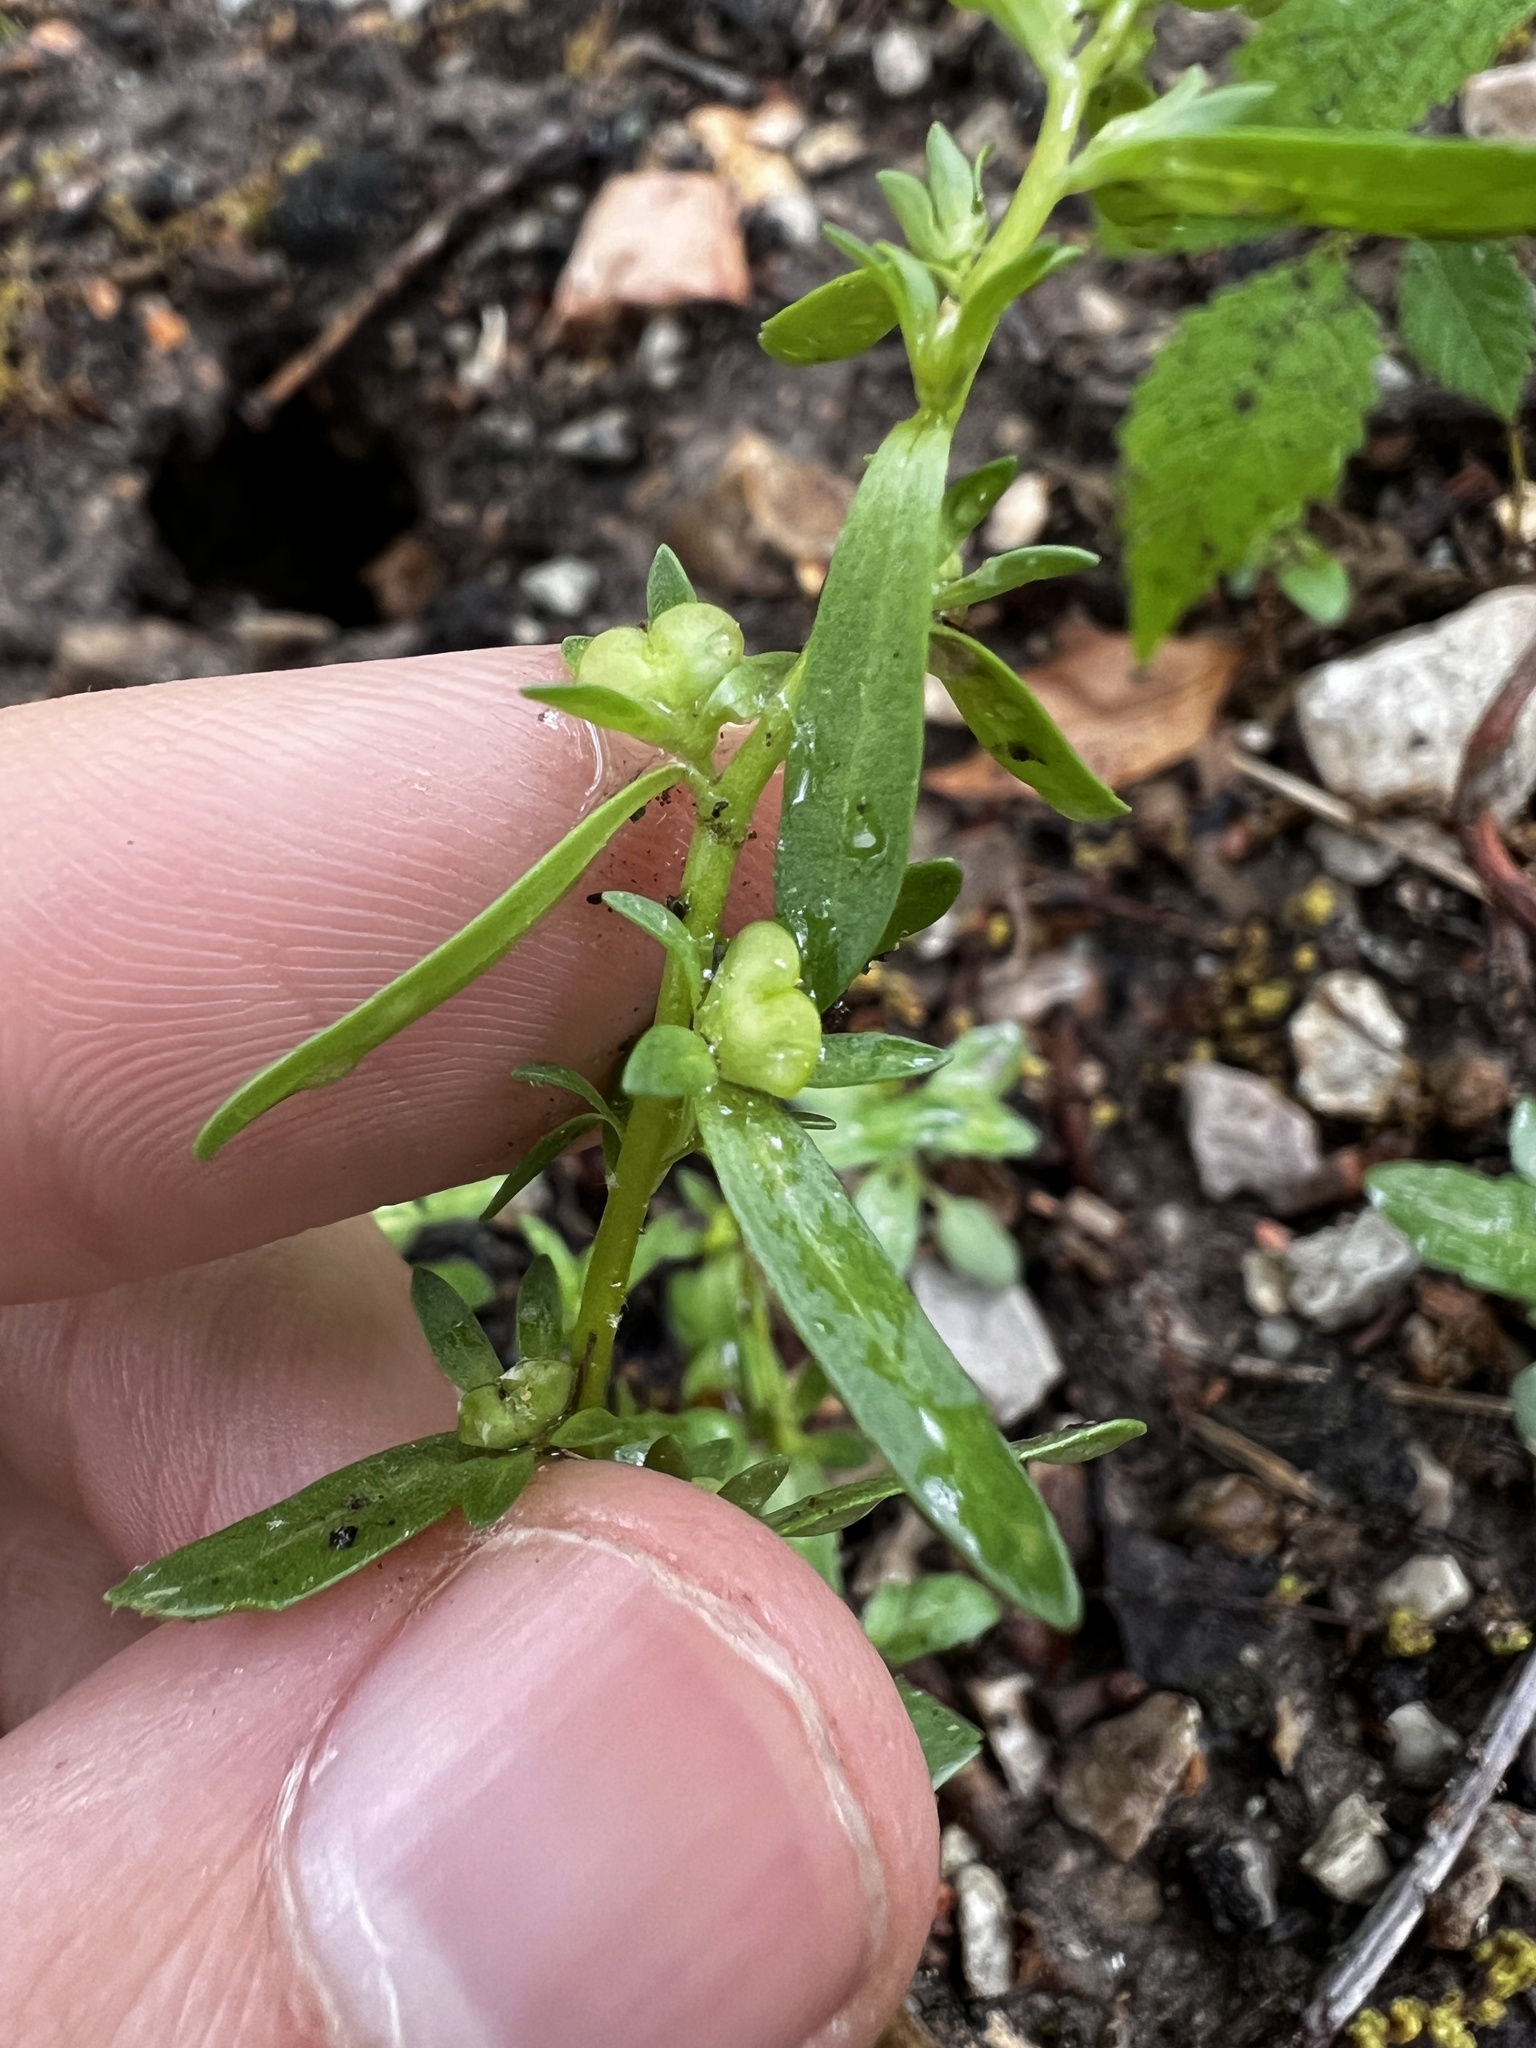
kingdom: Plantae
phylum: Tracheophyta
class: Magnoliopsida
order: Lamiales
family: Plantaginaceae
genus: Veronica
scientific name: Veronica peregrina
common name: Neckweed
